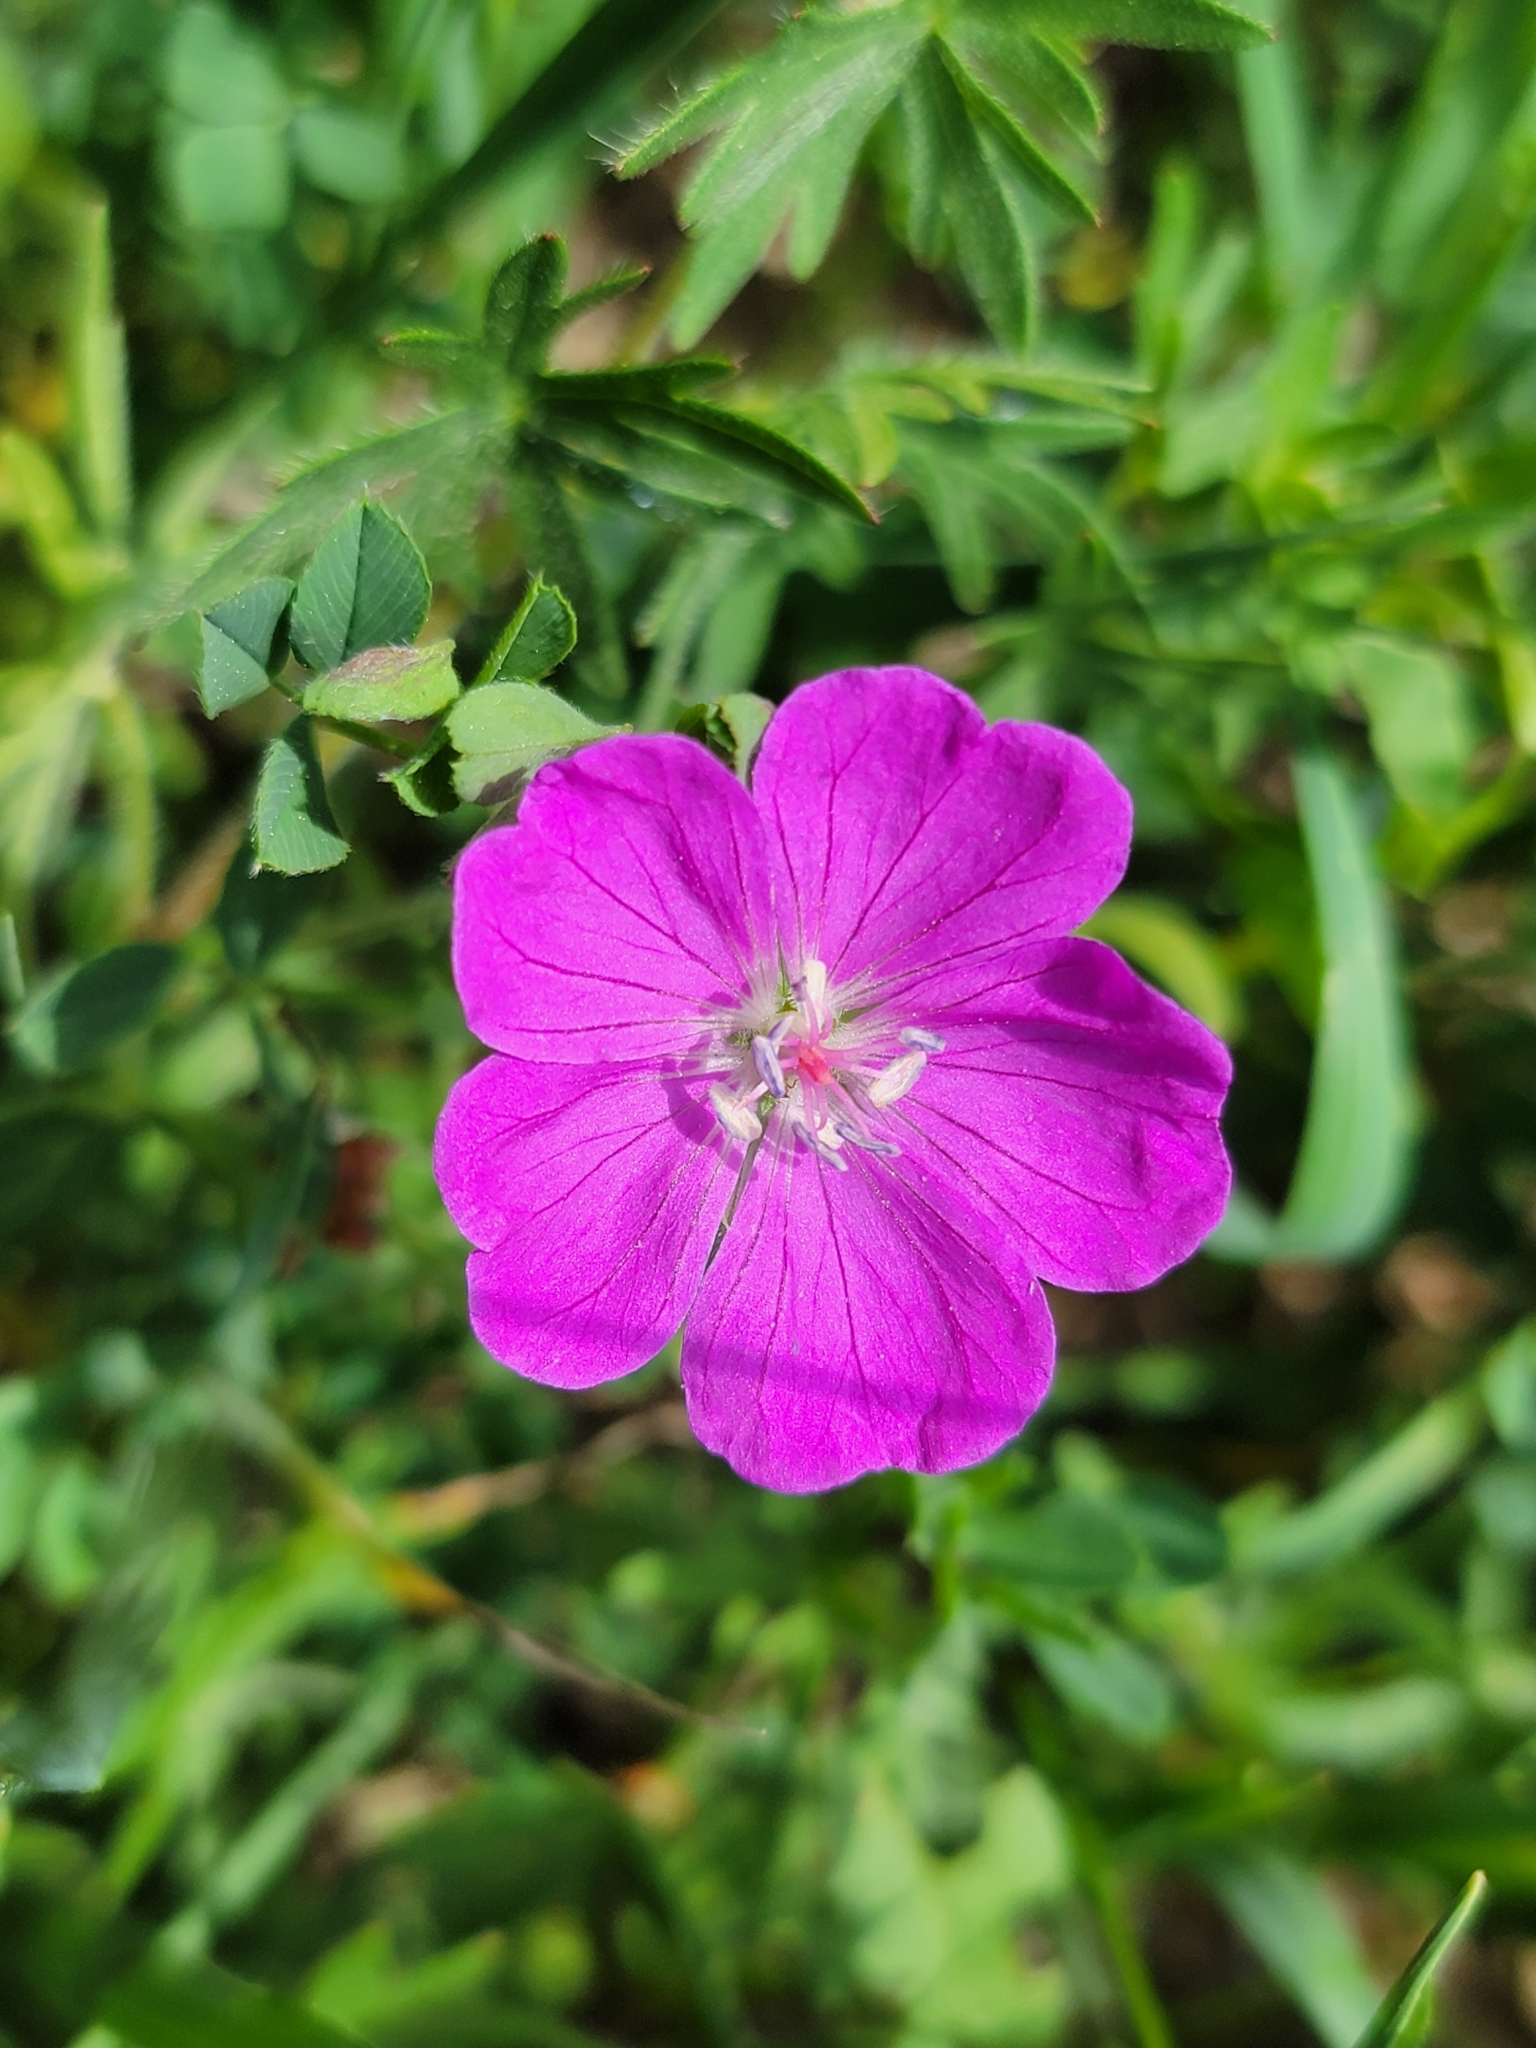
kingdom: Plantae
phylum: Tracheophyta
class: Magnoliopsida
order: Geraniales
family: Geraniaceae
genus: Geranium
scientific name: Geranium sanguineum
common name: Bloody crane's-bill
